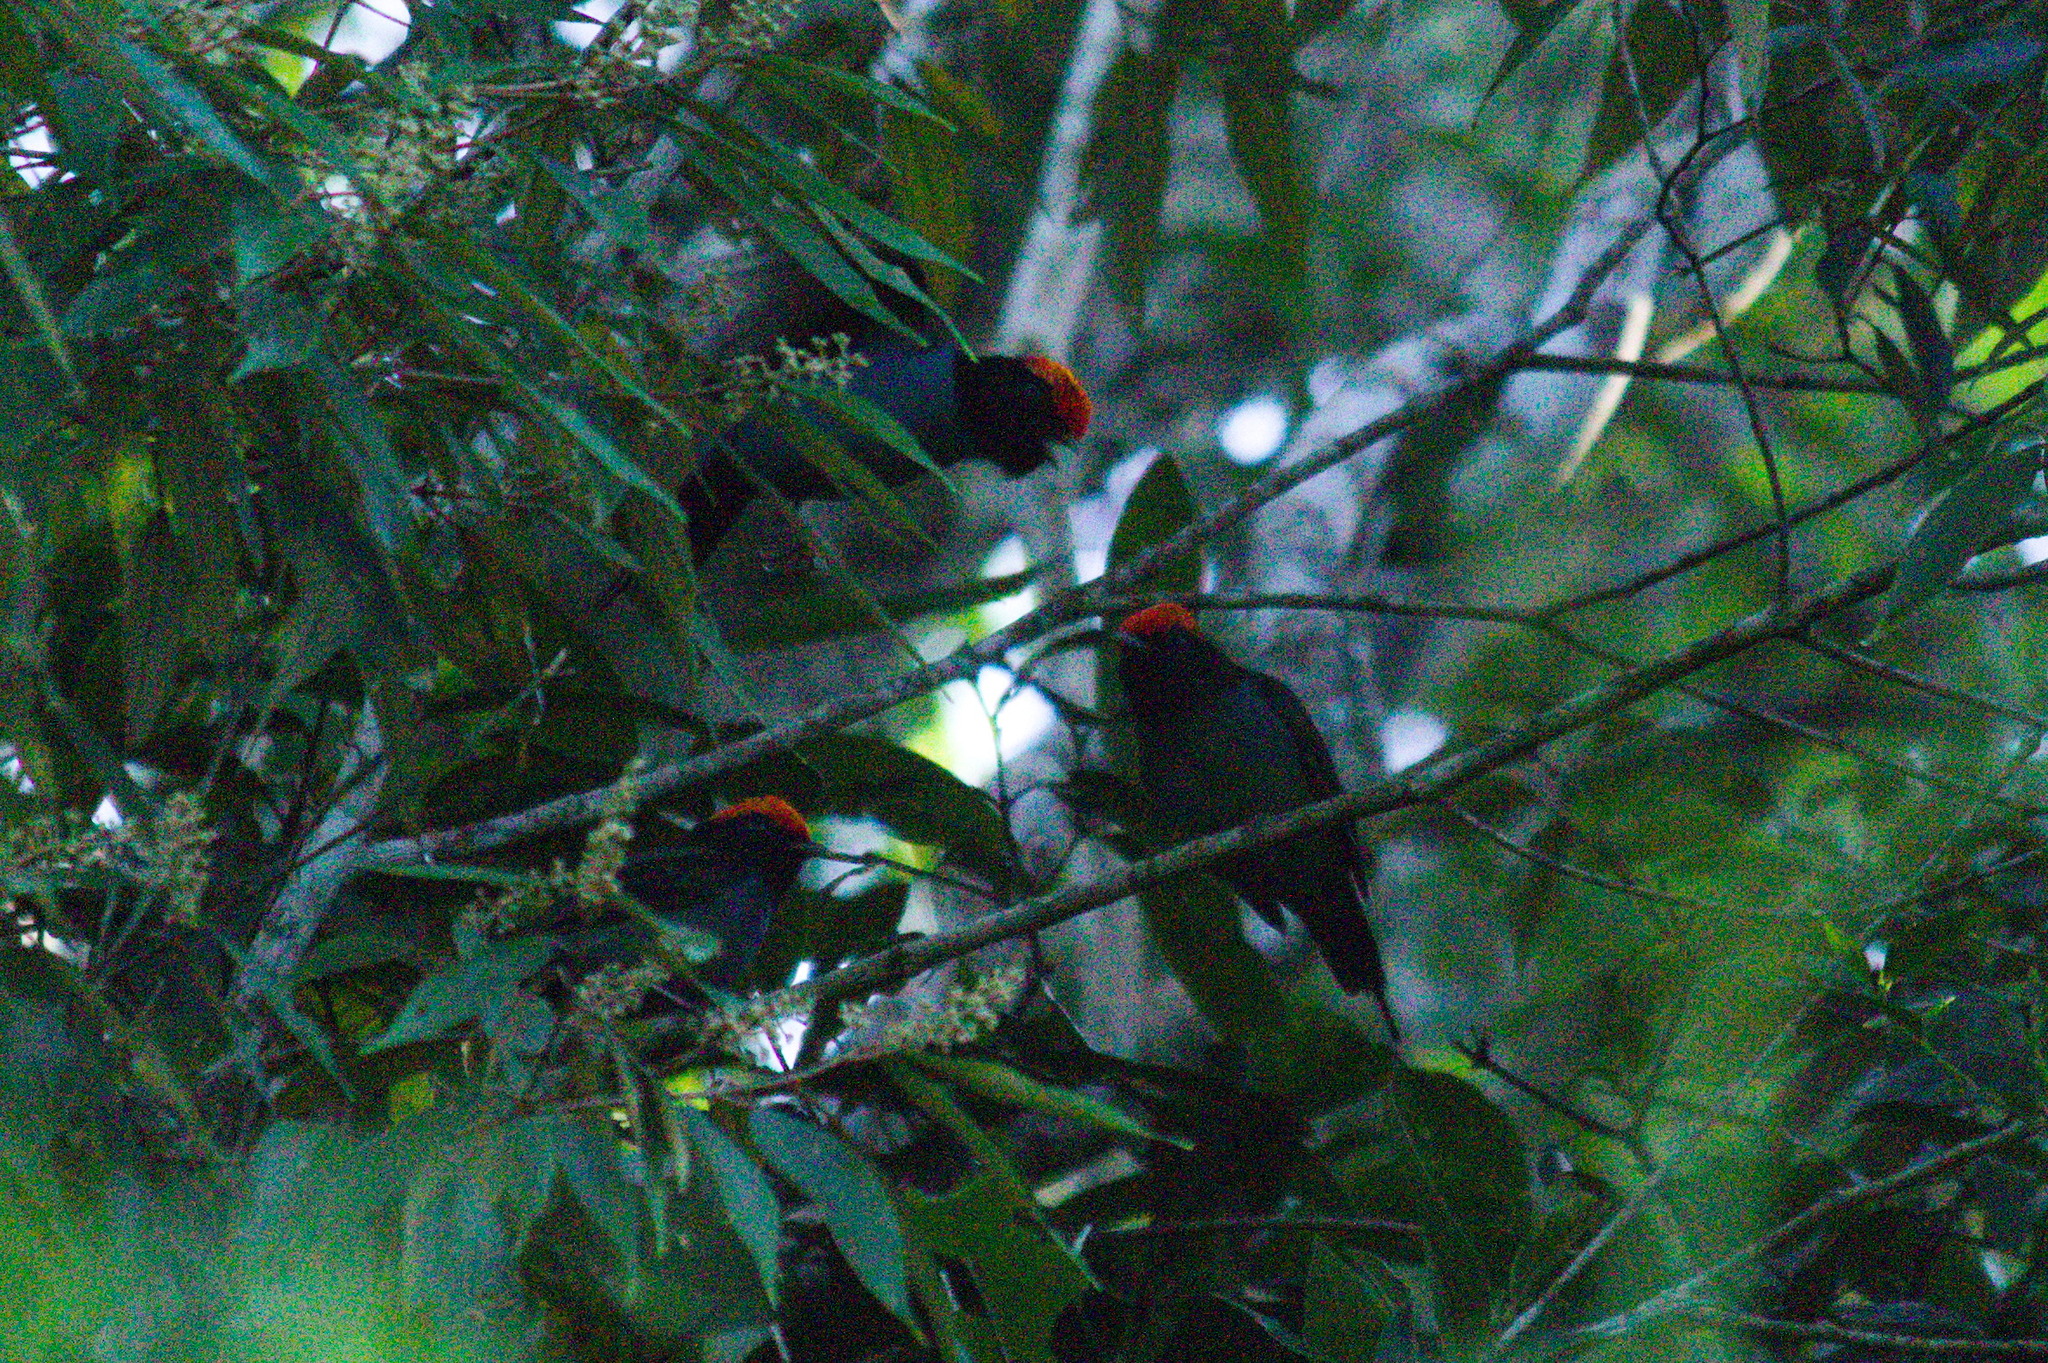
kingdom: Animalia
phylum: Chordata
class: Aves
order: Passeriformes
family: Pipridae
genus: Chiroxiphia
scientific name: Chiroxiphia caudata
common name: Blue manakin
